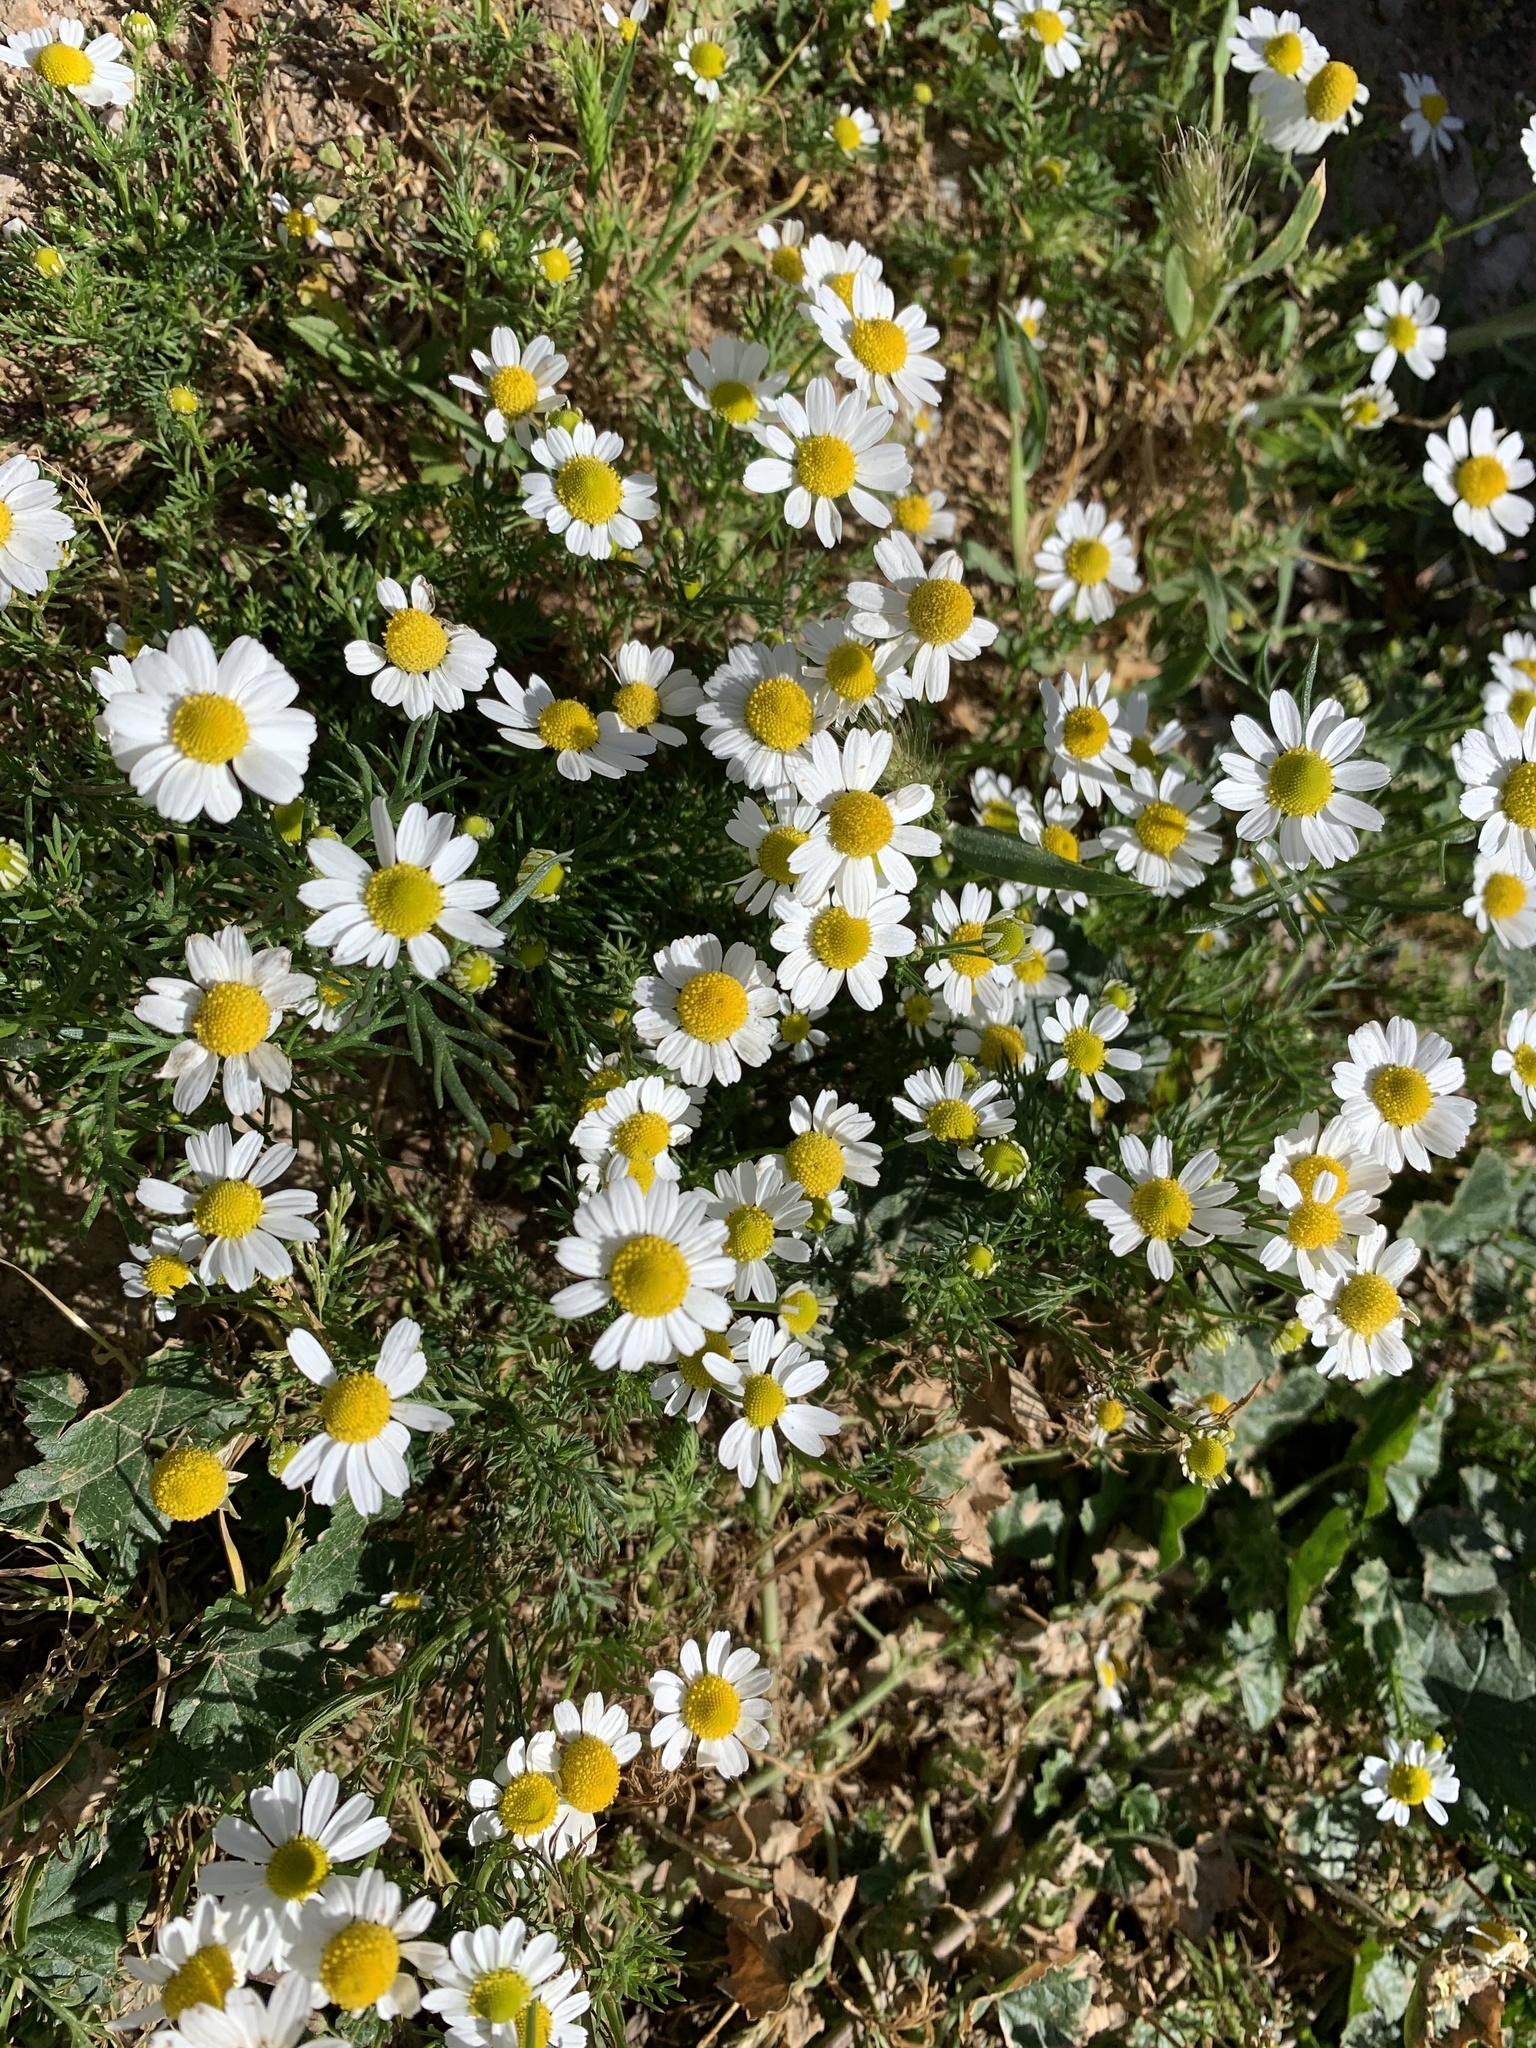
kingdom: Plantae
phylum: Tracheophyta
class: Magnoliopsida
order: Asterales
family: Asteraceae
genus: Matricaria
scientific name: Matricaria chamomilla
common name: Scented mayweed
